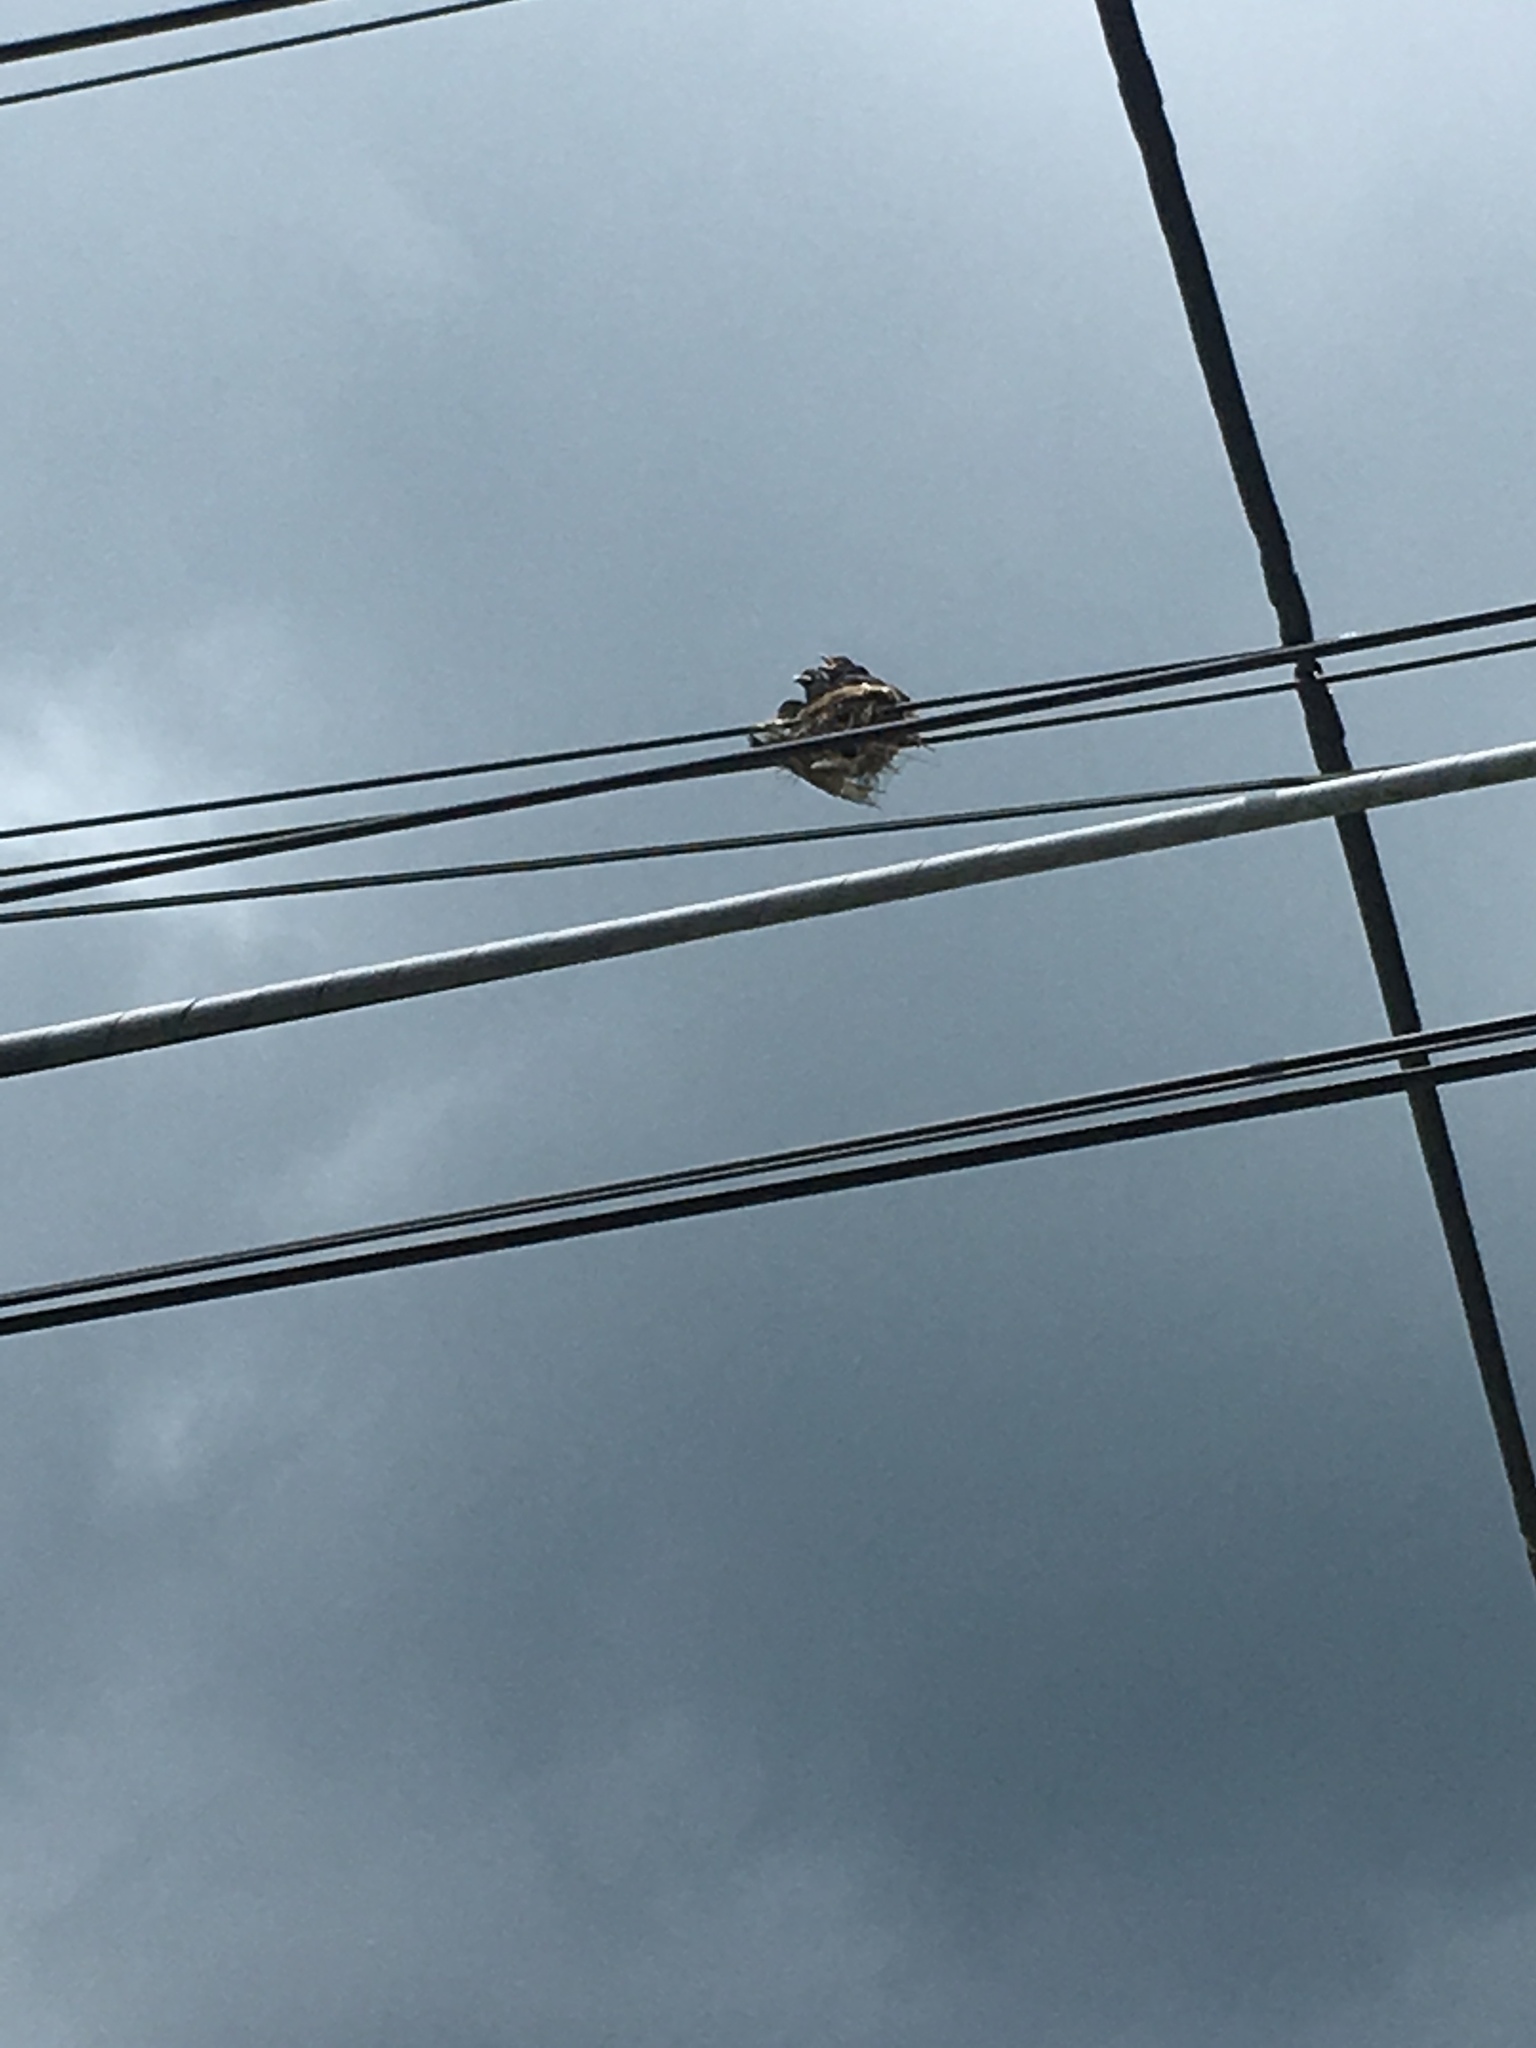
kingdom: Animalia
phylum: Chordata
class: Aves
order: Passeriformes
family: Dicruridae
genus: Dicrurus
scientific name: Dicrurus macrocercus
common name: Black drongo
